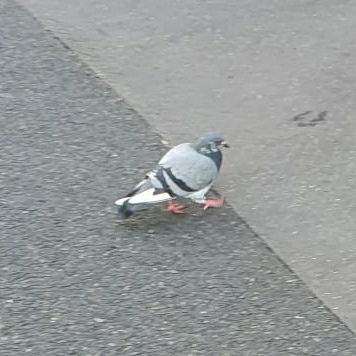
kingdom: Animalia
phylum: Chordata
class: Aves
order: Columbiformes
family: Columbidae
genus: Columba
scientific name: Columba livia
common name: Rock pigeon
